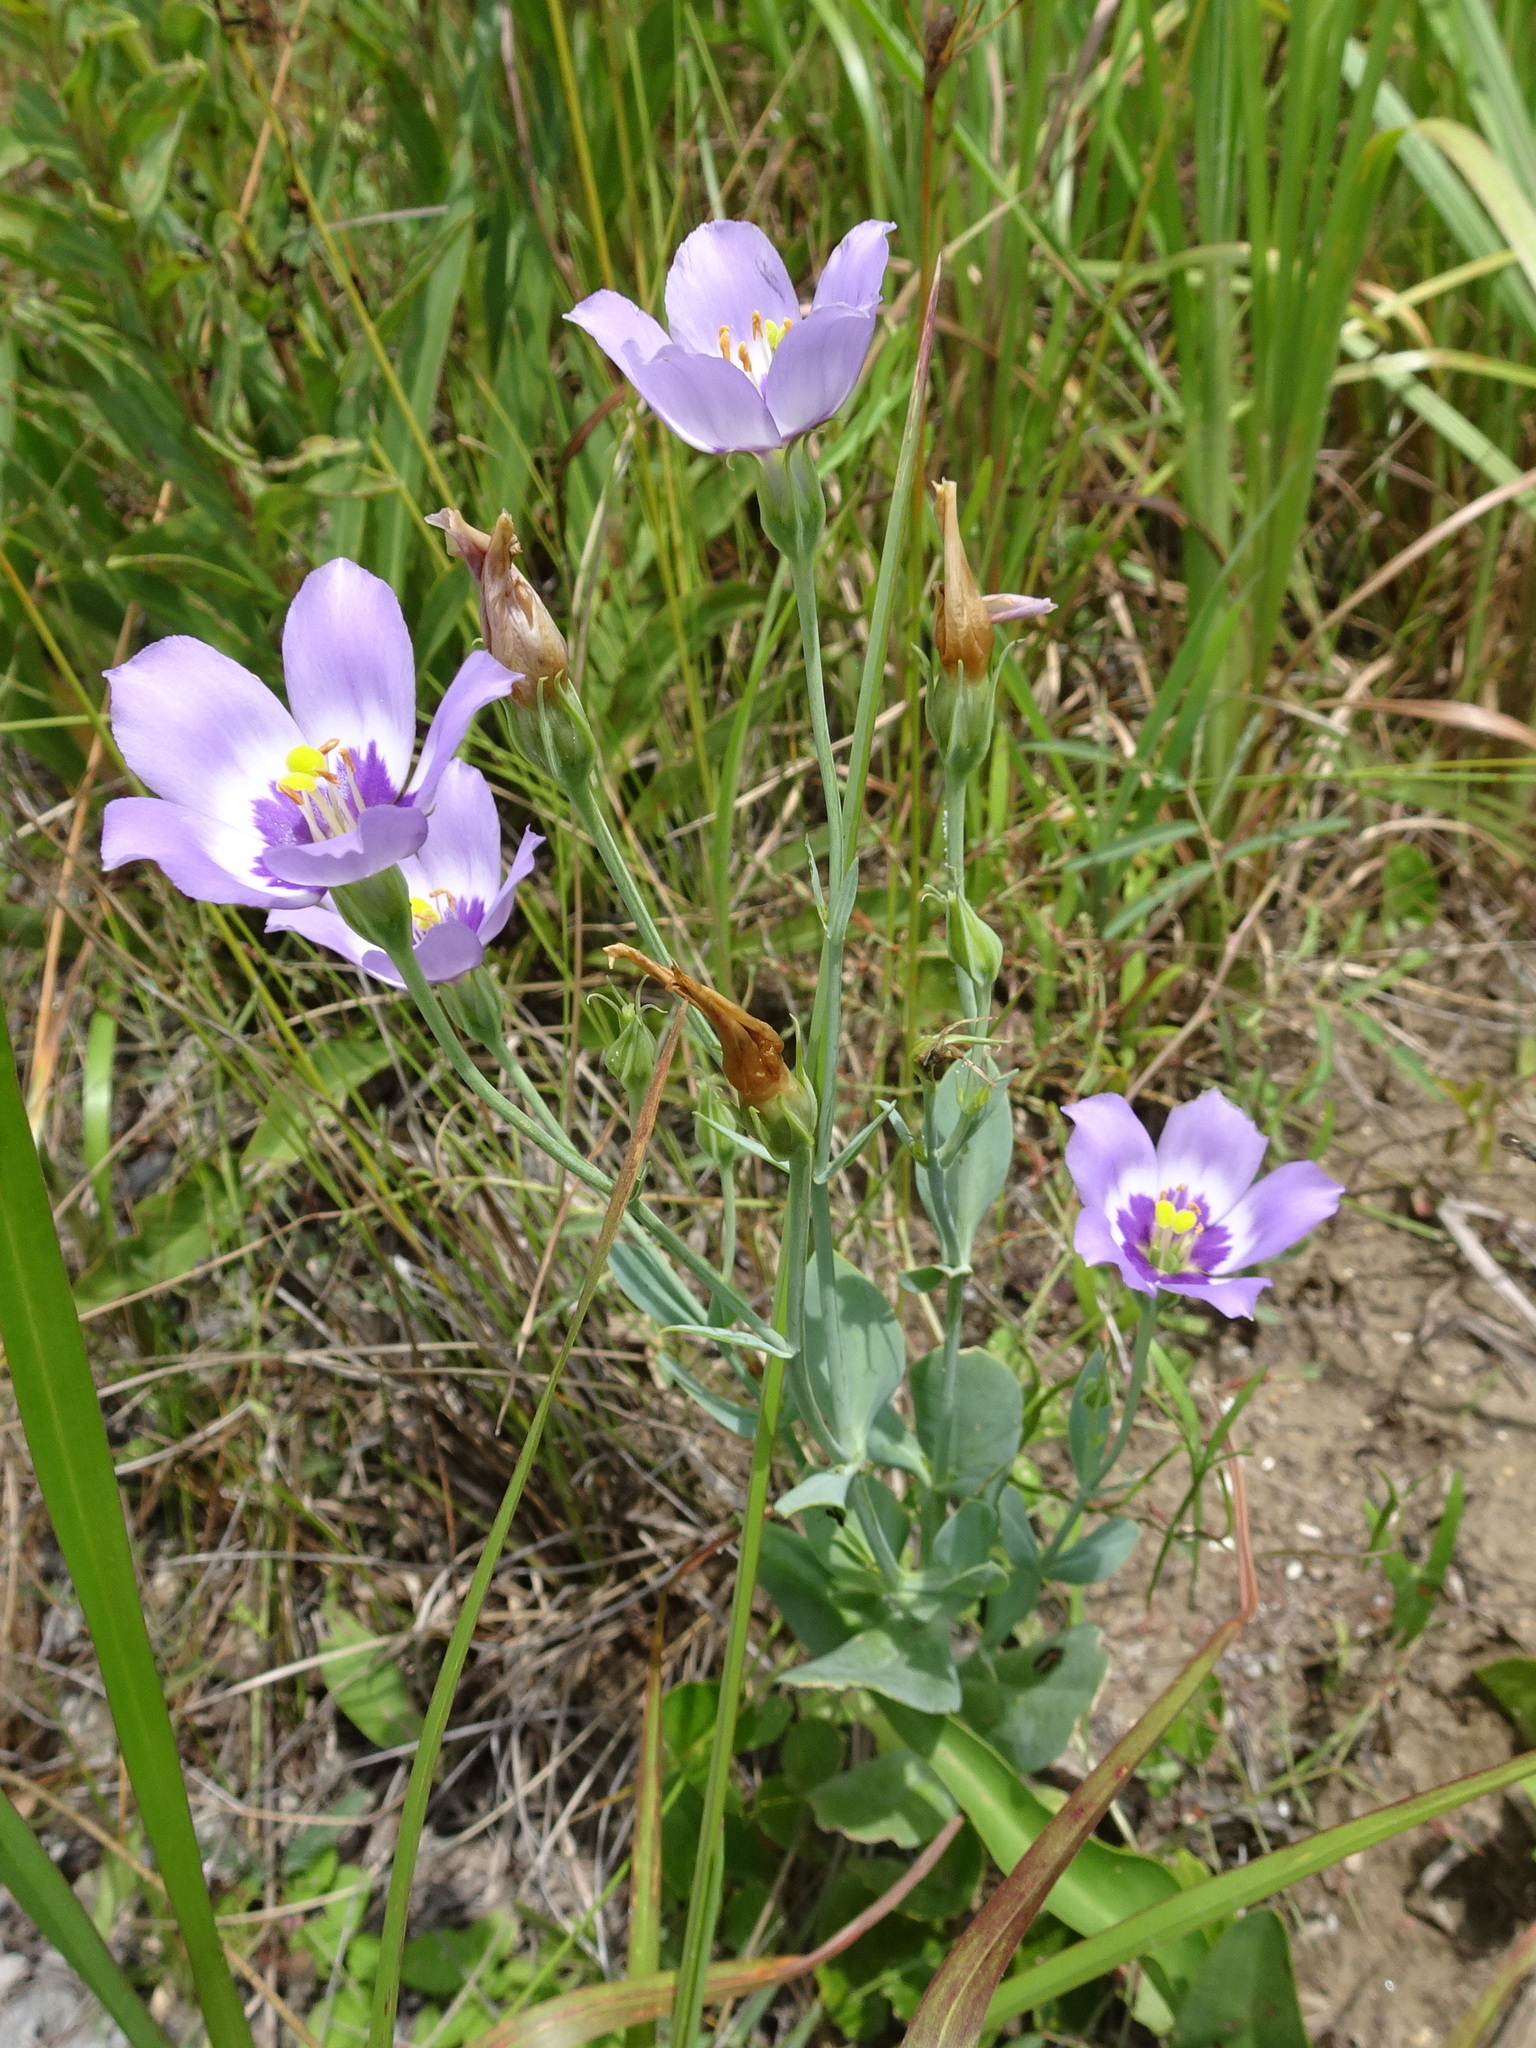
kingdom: Plantae
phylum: Tracheophyta
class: Magnoliopsida
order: Gentianales
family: Gentianaceae
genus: Eustoma
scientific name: Eustoma exaltatum
